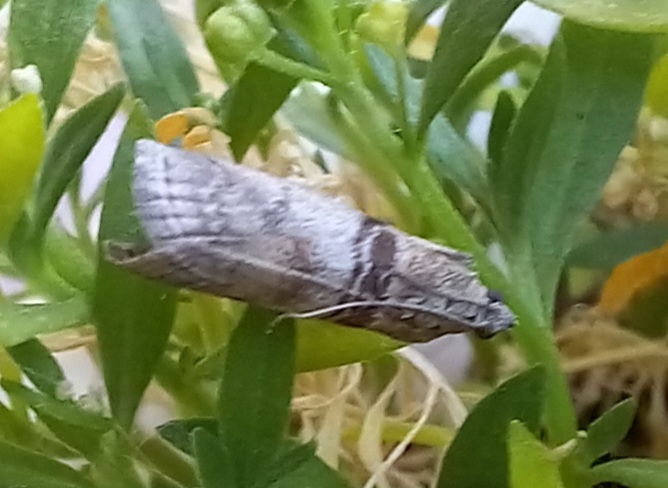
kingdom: Animalia
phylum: Arthropoda
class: Insecta
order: Lepidoptera
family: Pyralidae
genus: Sciota
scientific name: Sciota rhenella
